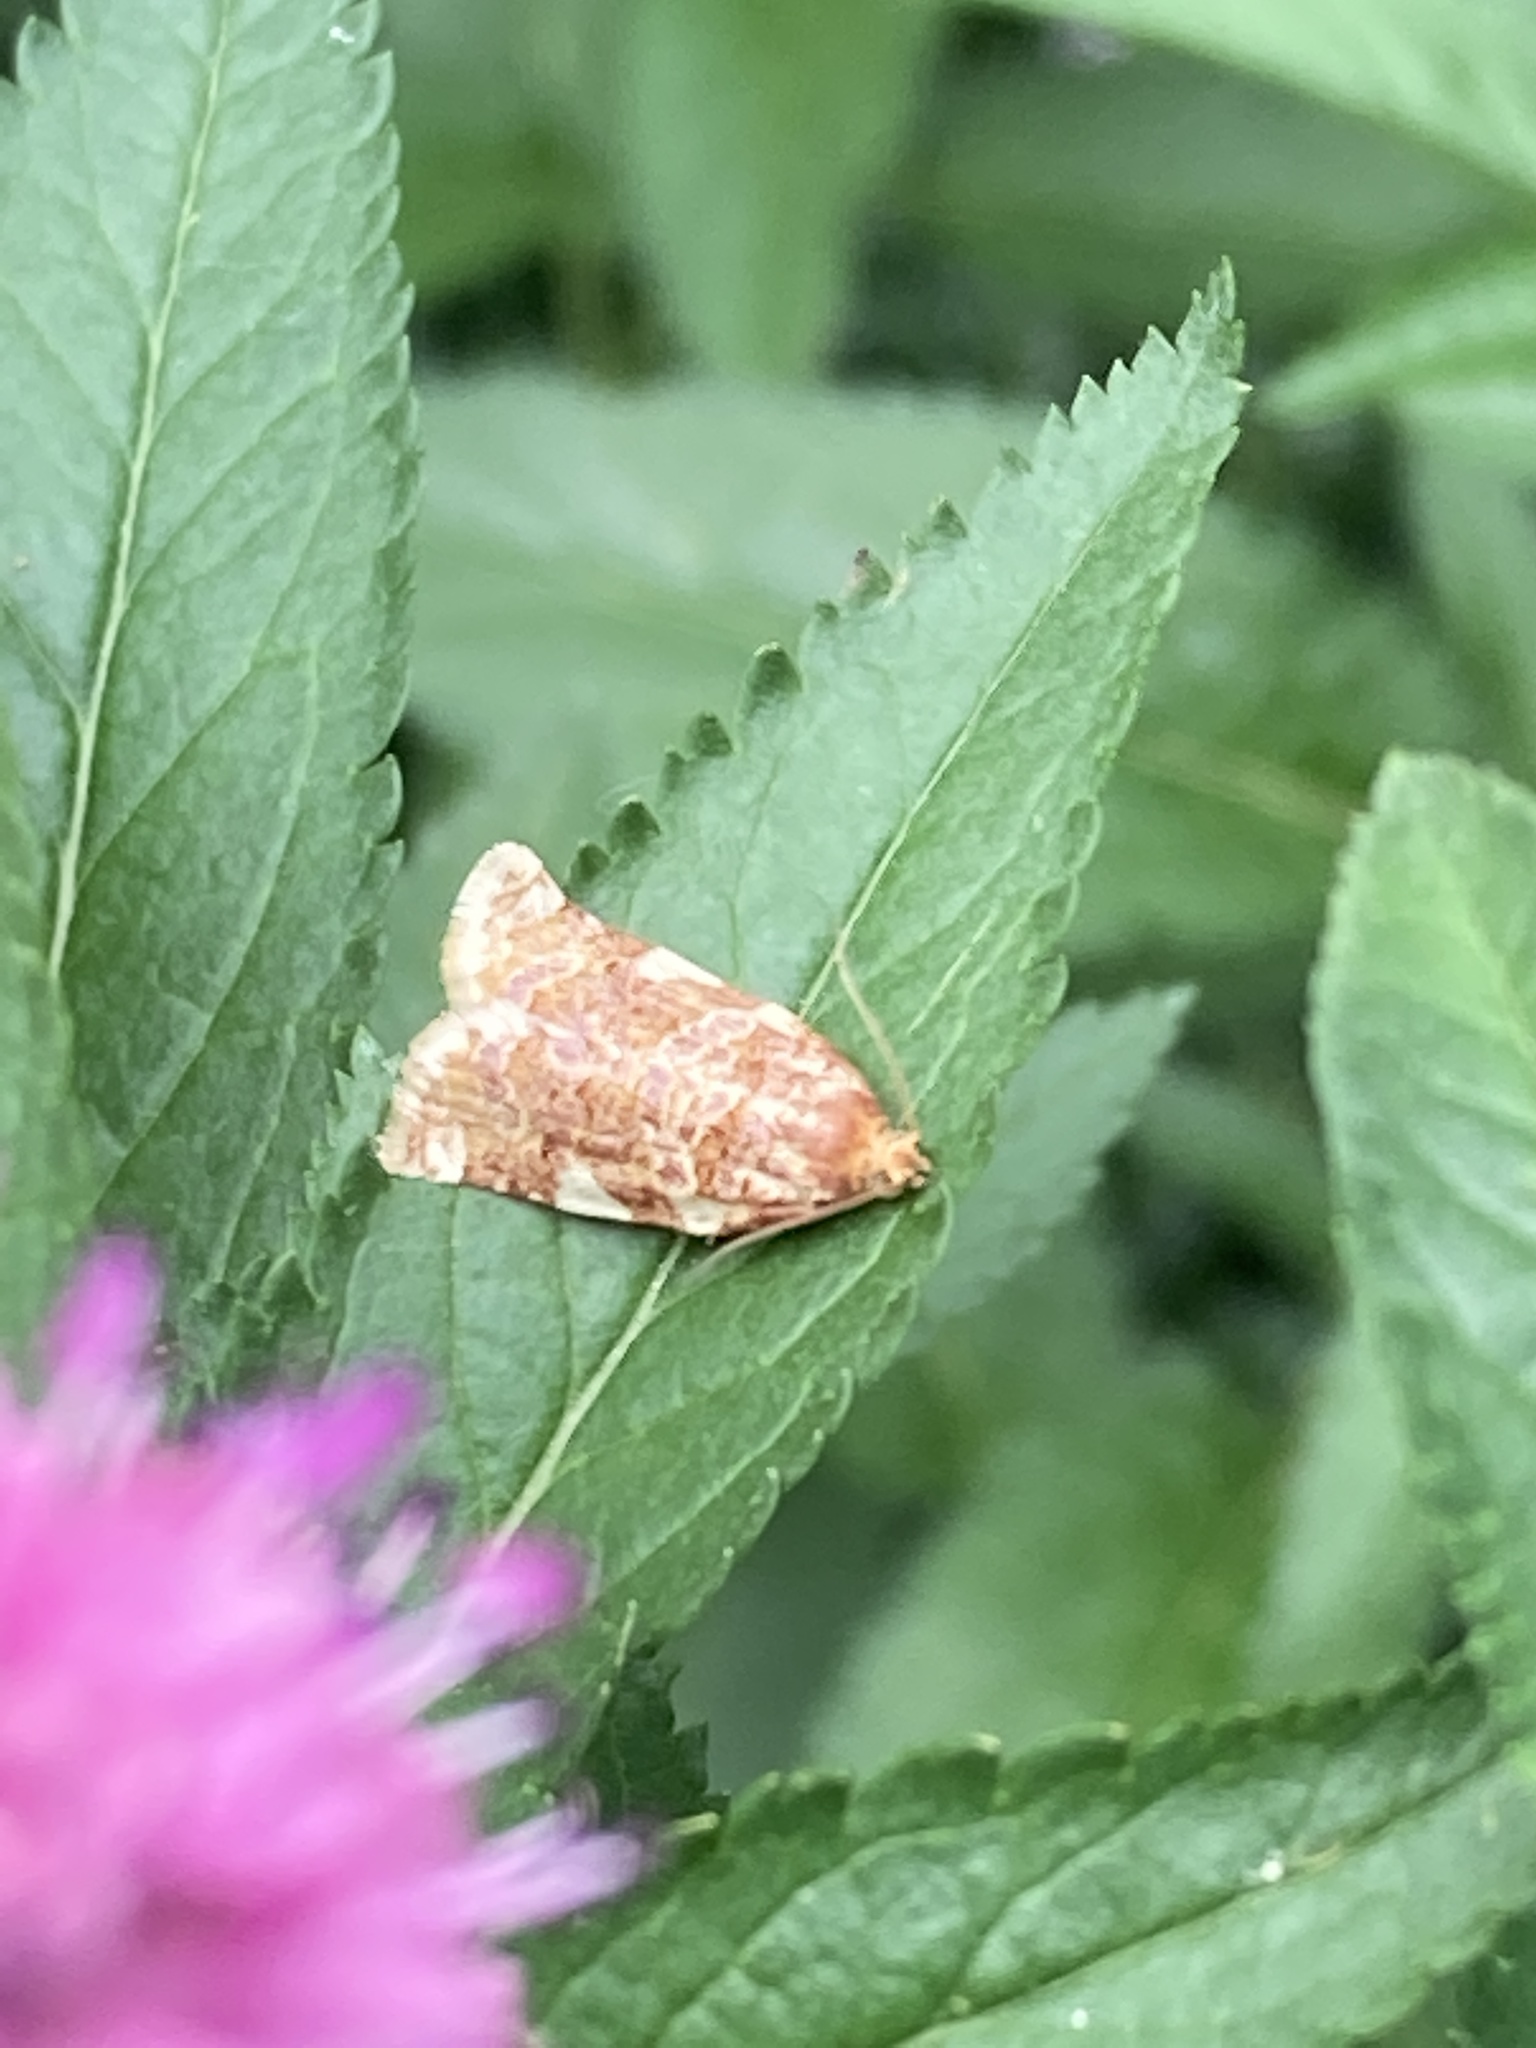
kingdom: Animalia
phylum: Arthropoda
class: Insecta
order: Lepidoptera
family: Tortricidae
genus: Archips
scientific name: Archips argyrospila
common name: Fruit-tree leafroller moth
